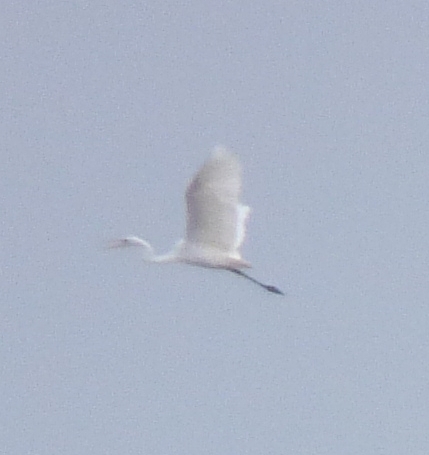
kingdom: Animalia
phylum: Chordata
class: Aves
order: Pelecaniformes
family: Ardeidae
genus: Ardea
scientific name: Ardea alba
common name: Great egret
